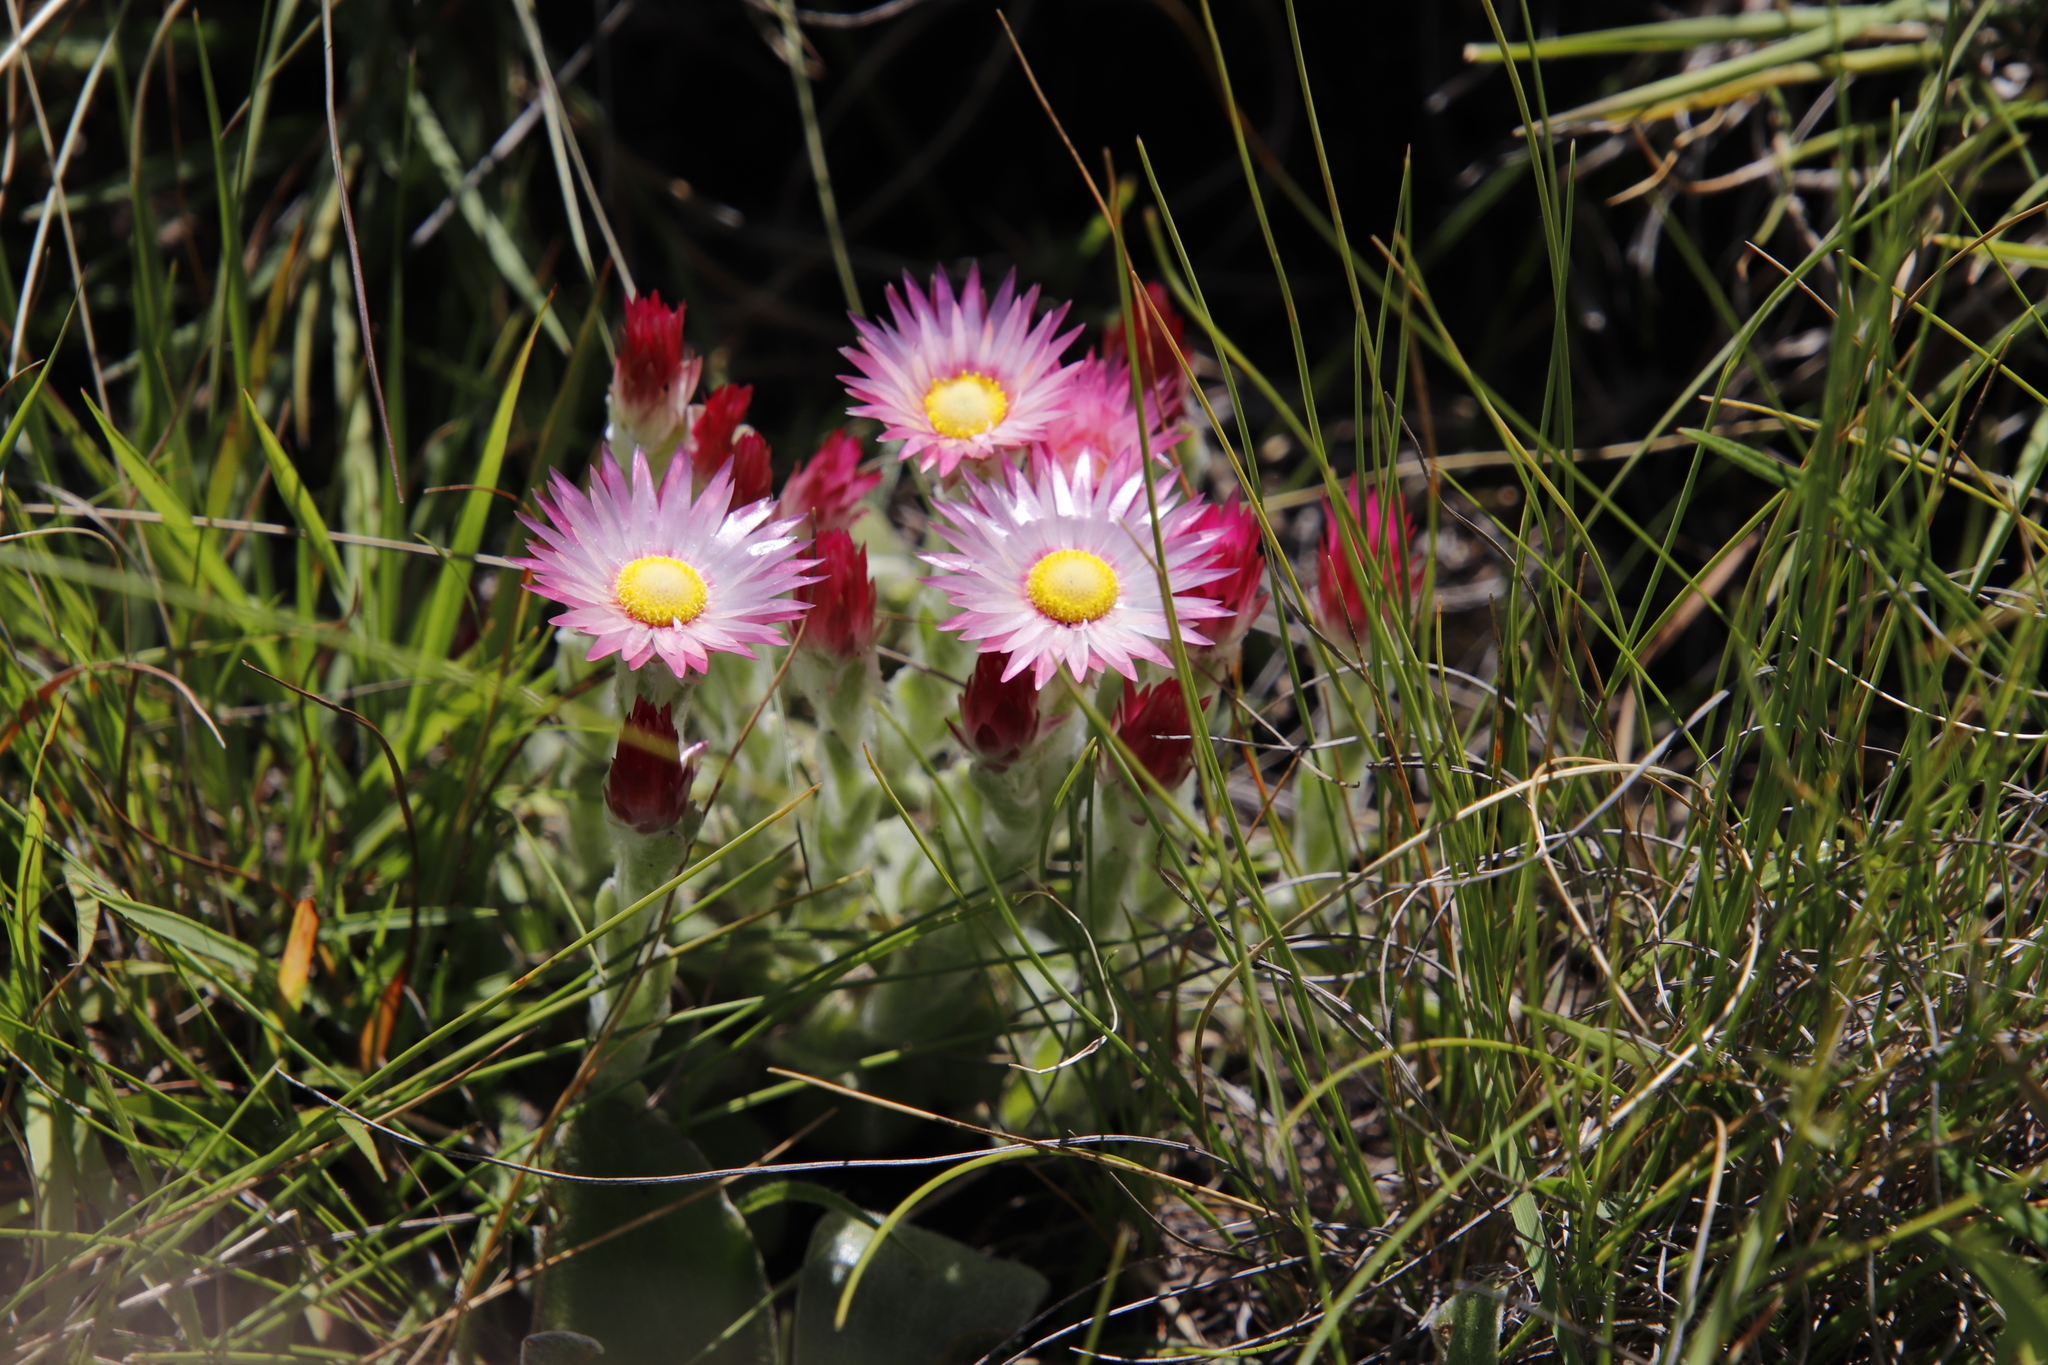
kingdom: Plantae
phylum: Tracheophyta
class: Magnoliopsida
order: Asterales
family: Asteraceae
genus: Helichrysum
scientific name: Helichrysum adenocarpum
